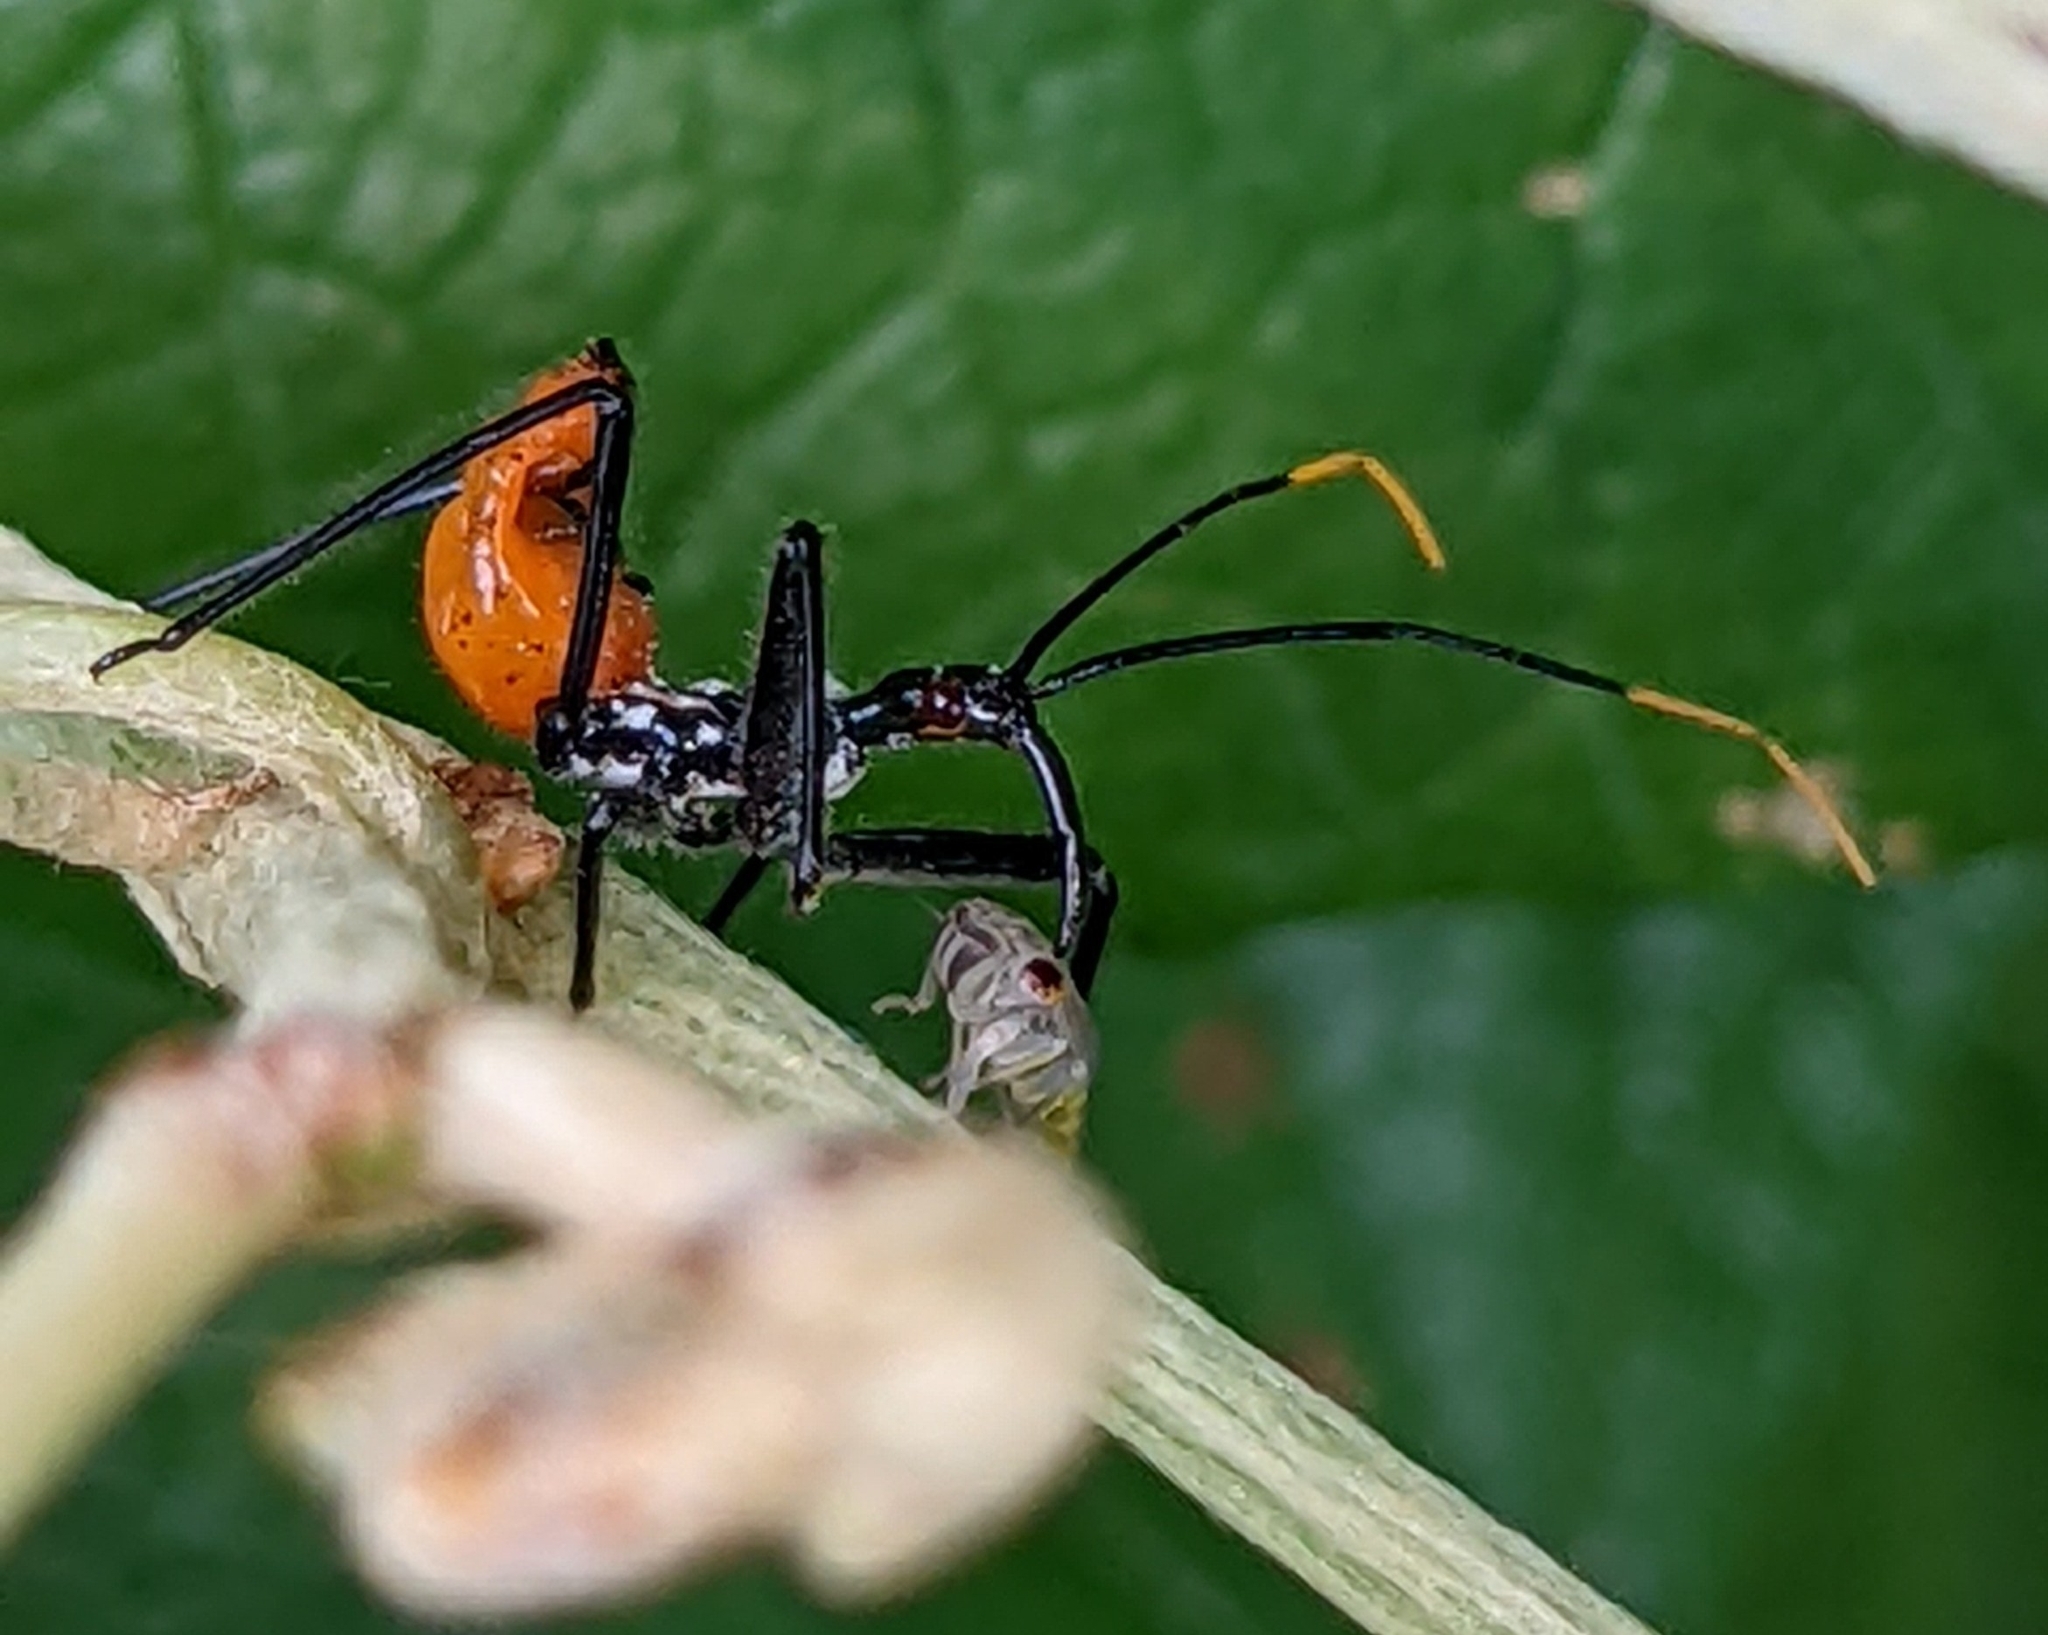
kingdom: Animalia
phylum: Arthropoda
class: Insecta
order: Hemiptera
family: Reduviidae
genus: Arilus
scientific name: Arilus cristatus
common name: North american wheel bug
